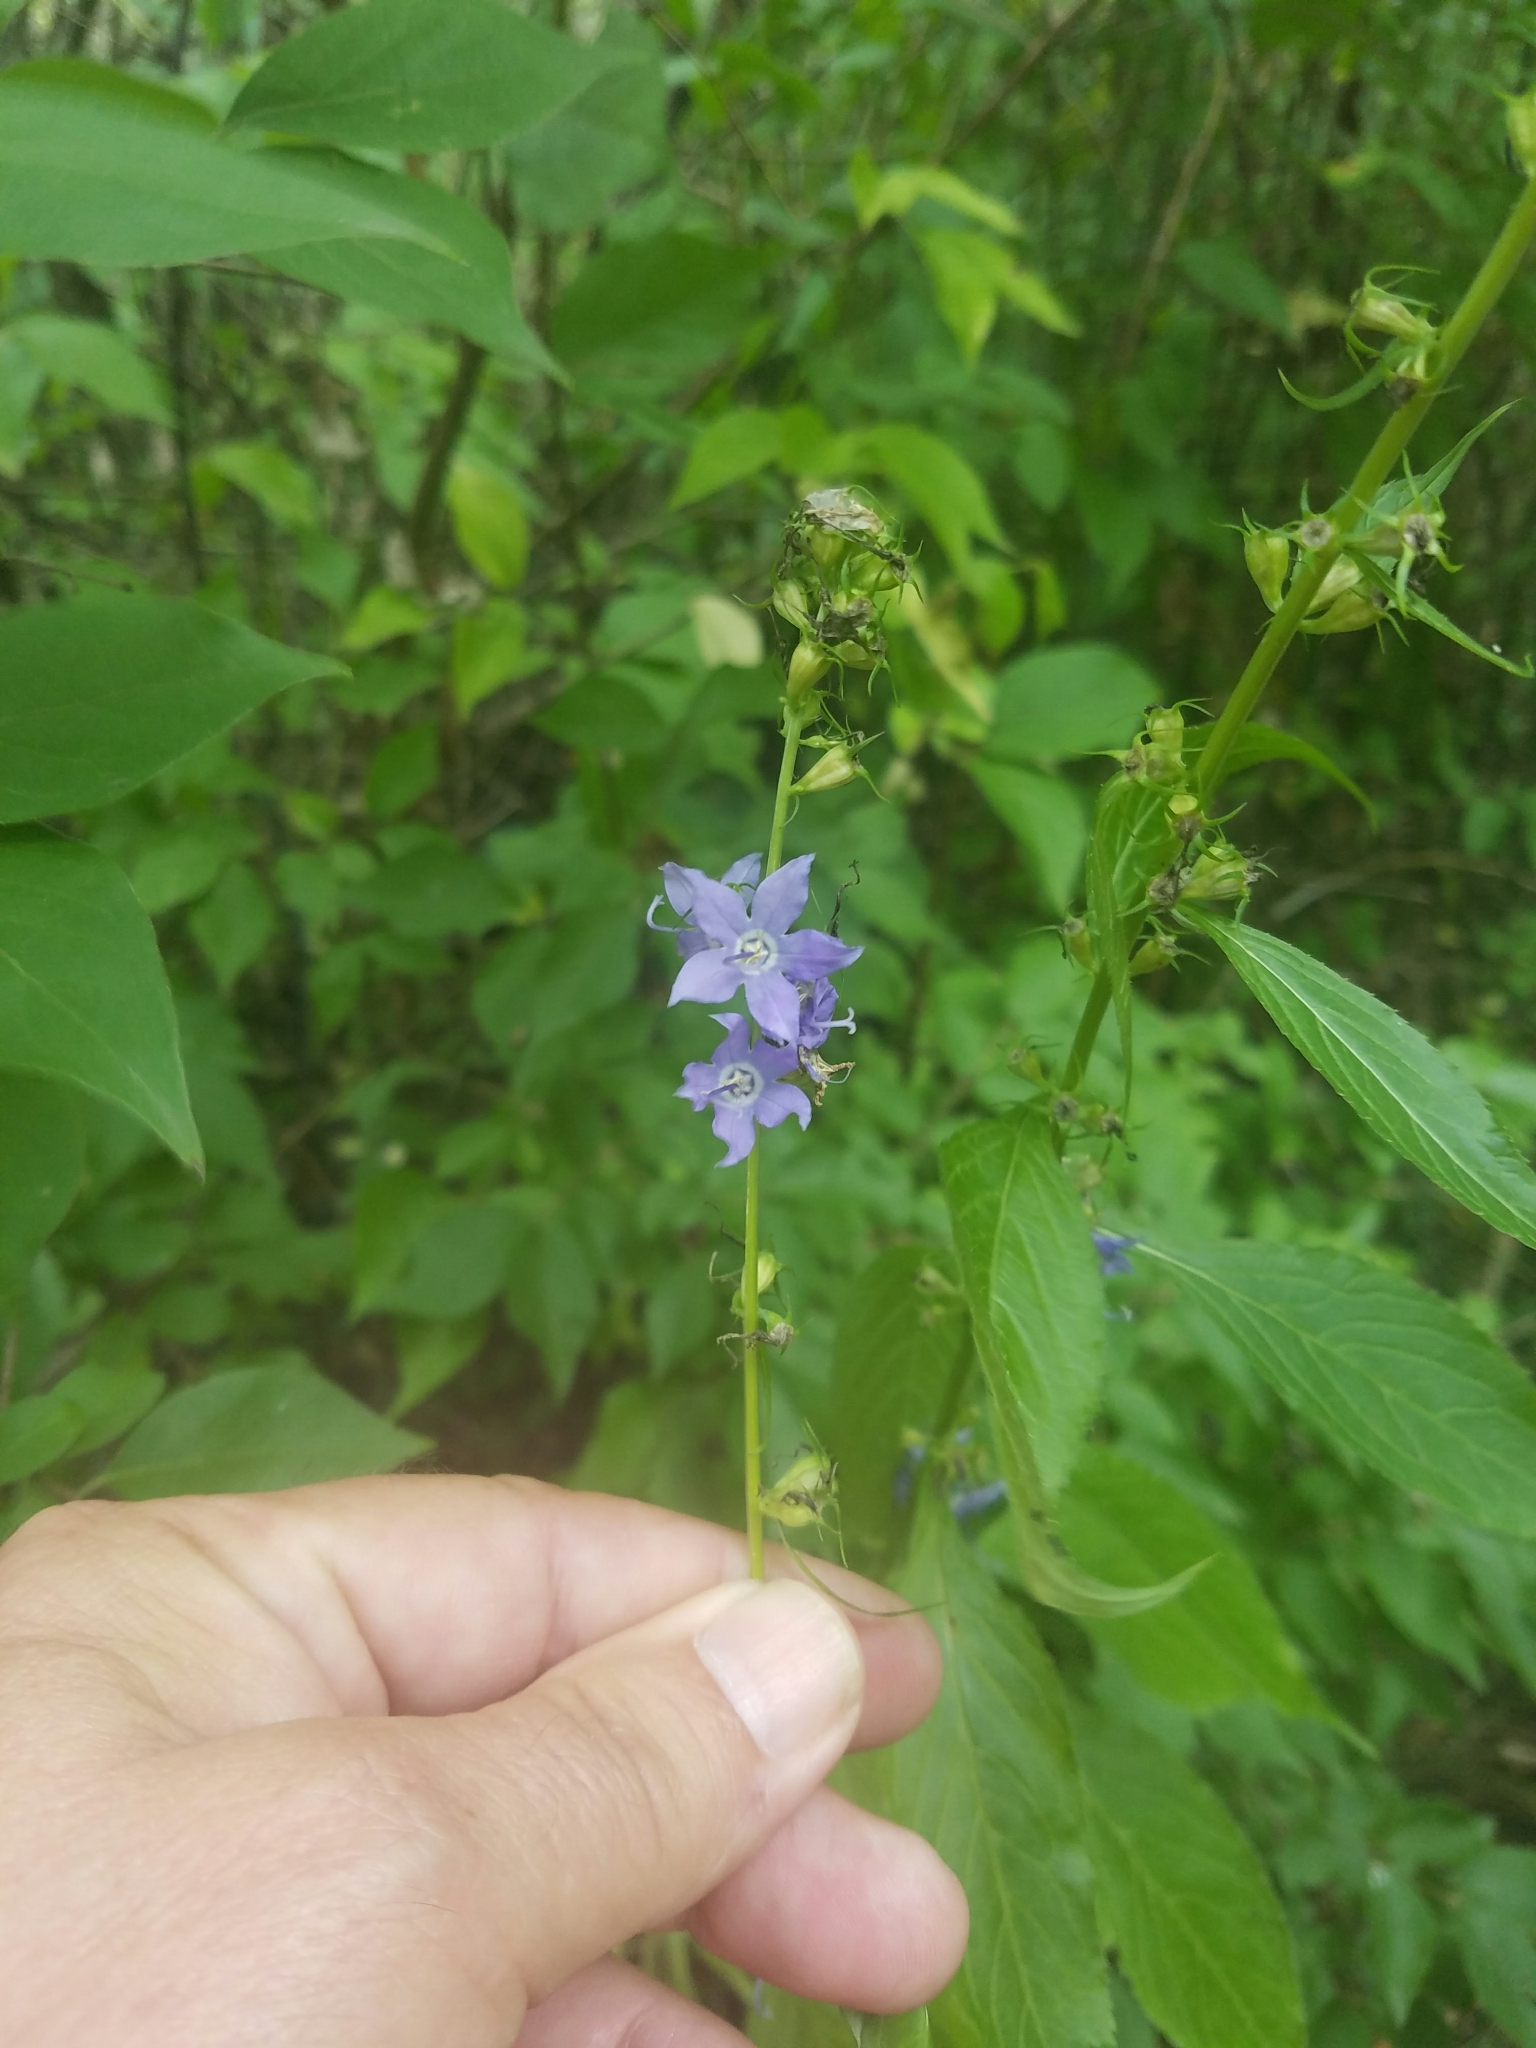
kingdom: Plantae
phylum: Tracheophyta
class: Magnoliopsida
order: Asterales
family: Campanulaceae
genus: Campanulastrum
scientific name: Campanulastrum americanum
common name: American bellflower
